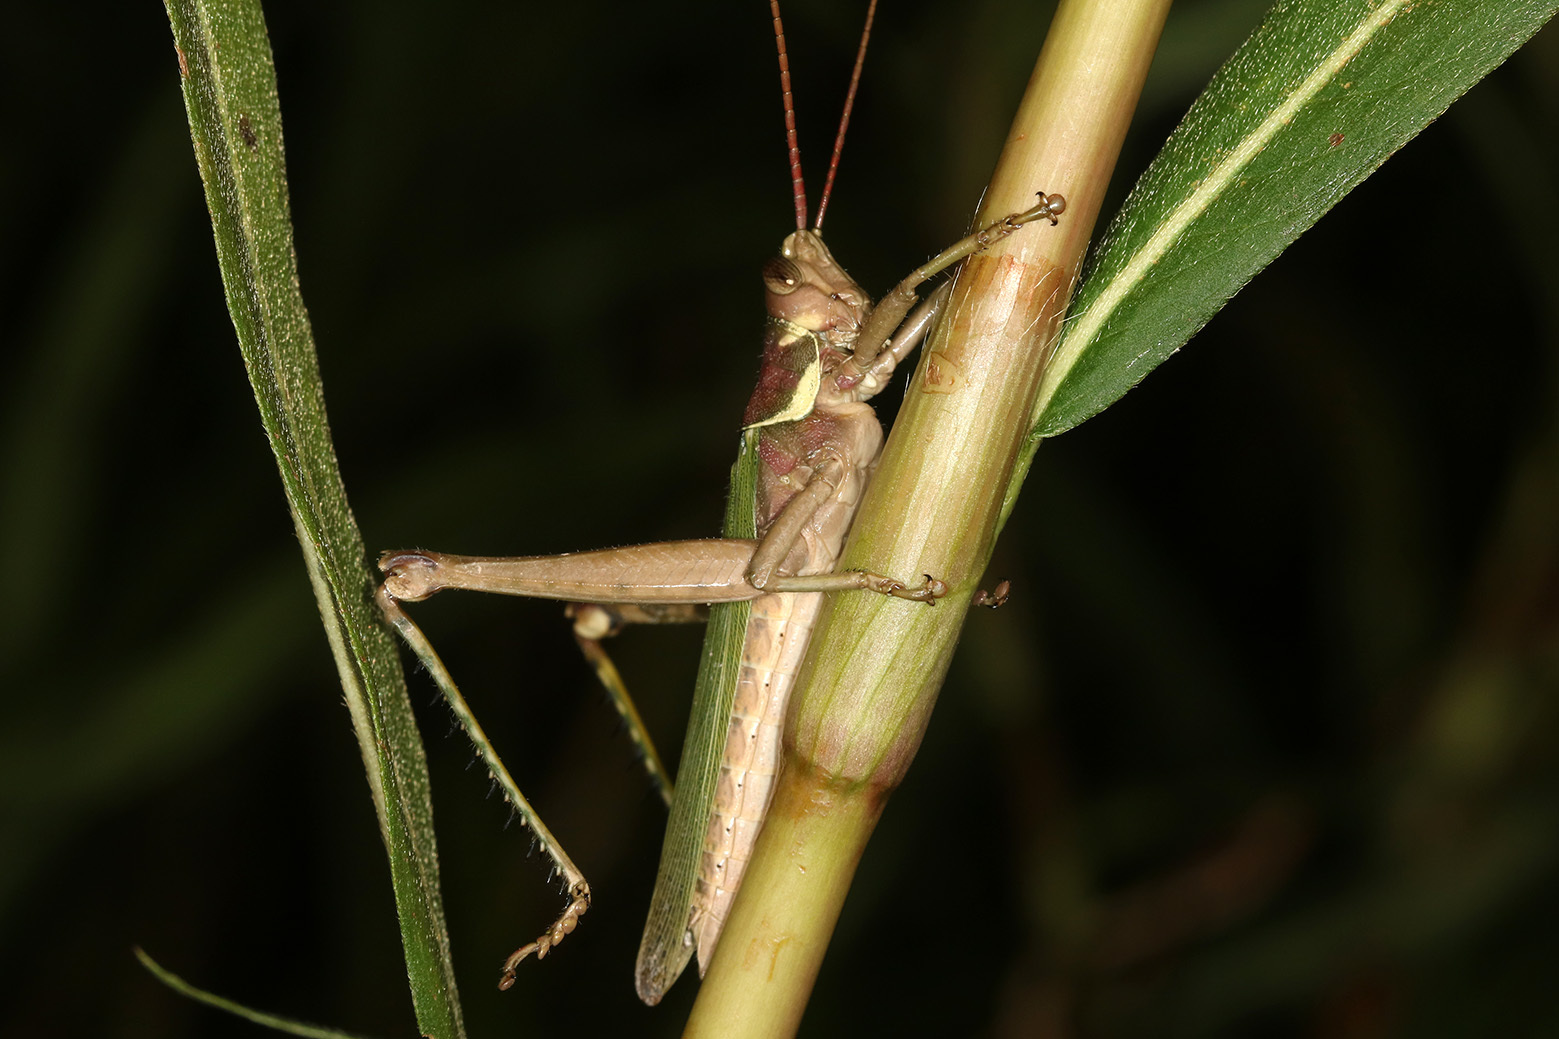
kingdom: Animalia
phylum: Arthropoda
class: Insecta
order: Orthoptera
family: Romaleidae
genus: Coryacris
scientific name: Coryacris angustipennis
